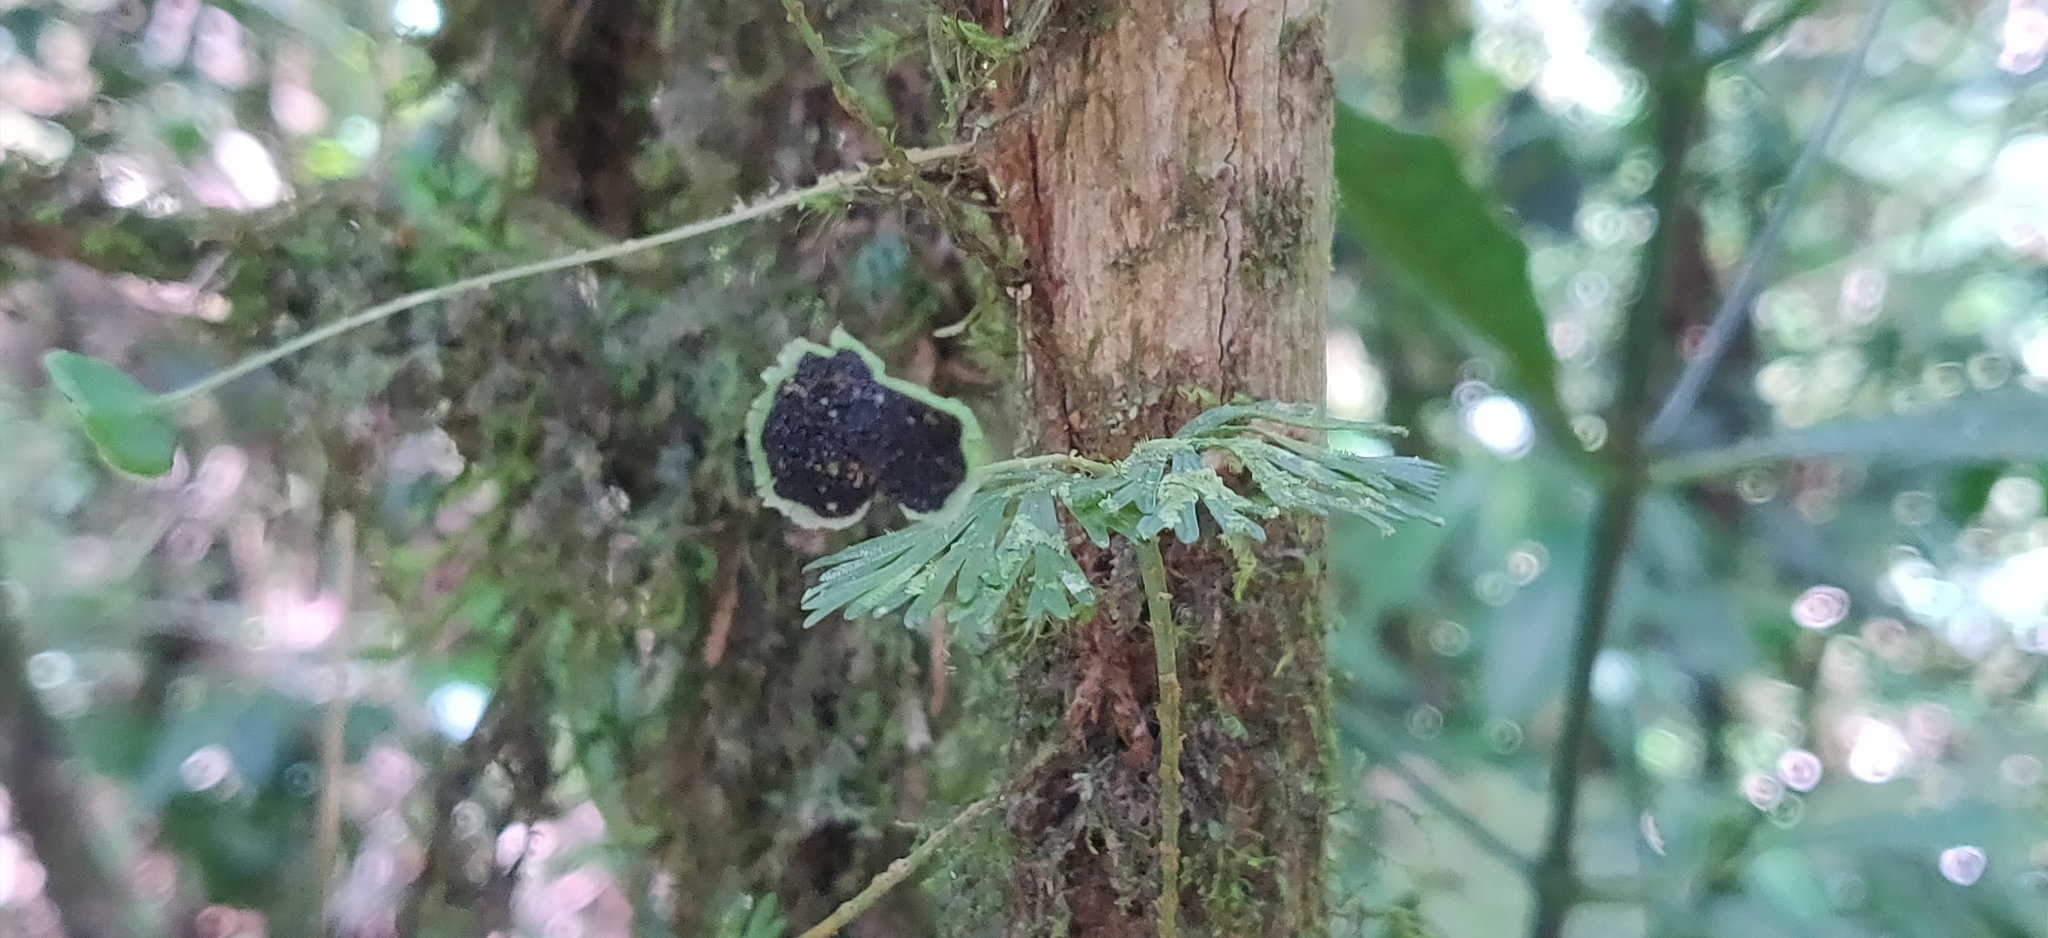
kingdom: Plantae
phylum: Tracheophyta
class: Polypodiopsida
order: Polypodiales
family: Dryopteridaceae
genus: Elaphoglossum
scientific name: Elaphoglossum peltatum
